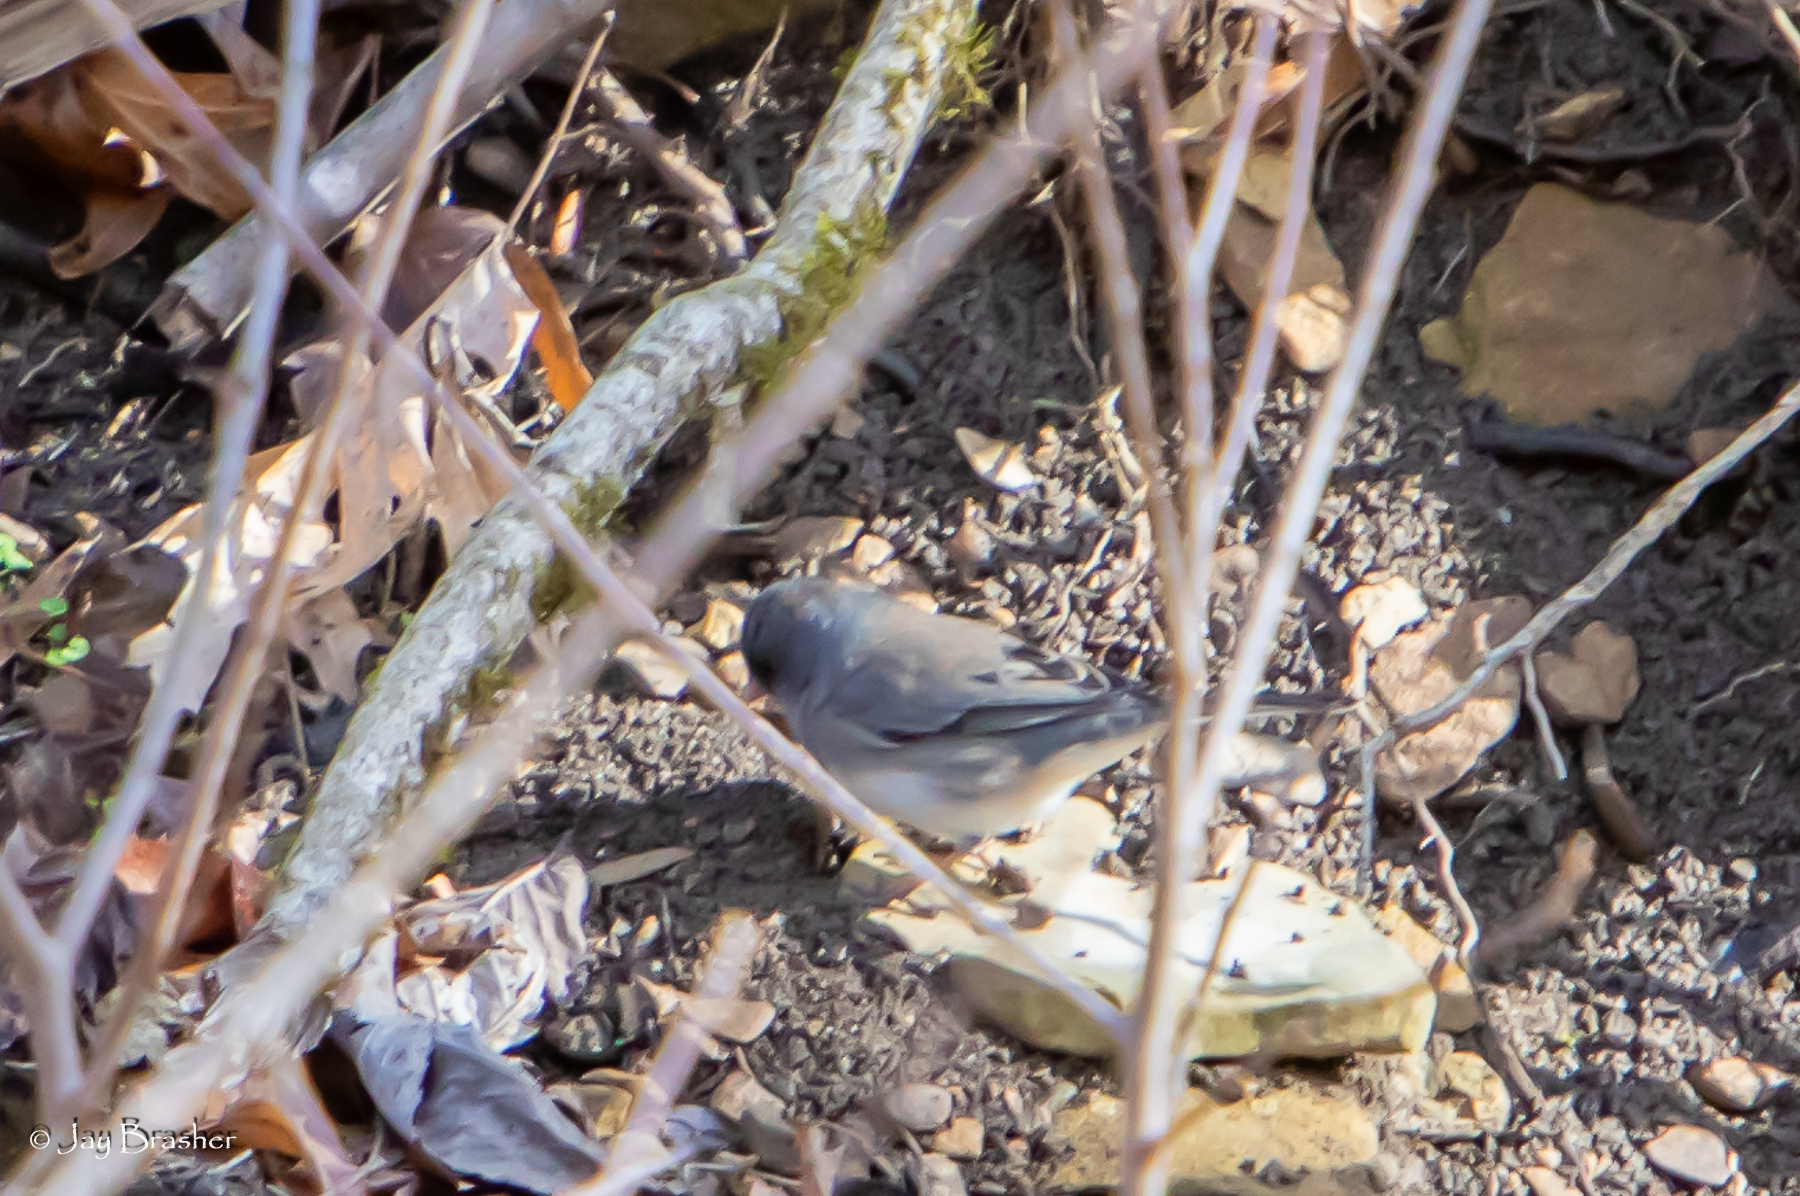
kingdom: Animalia
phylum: Chordata
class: Aves
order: Passeriformes
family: Passerellidae
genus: Junco
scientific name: Junco hyemalis
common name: Dark-eyed junco
